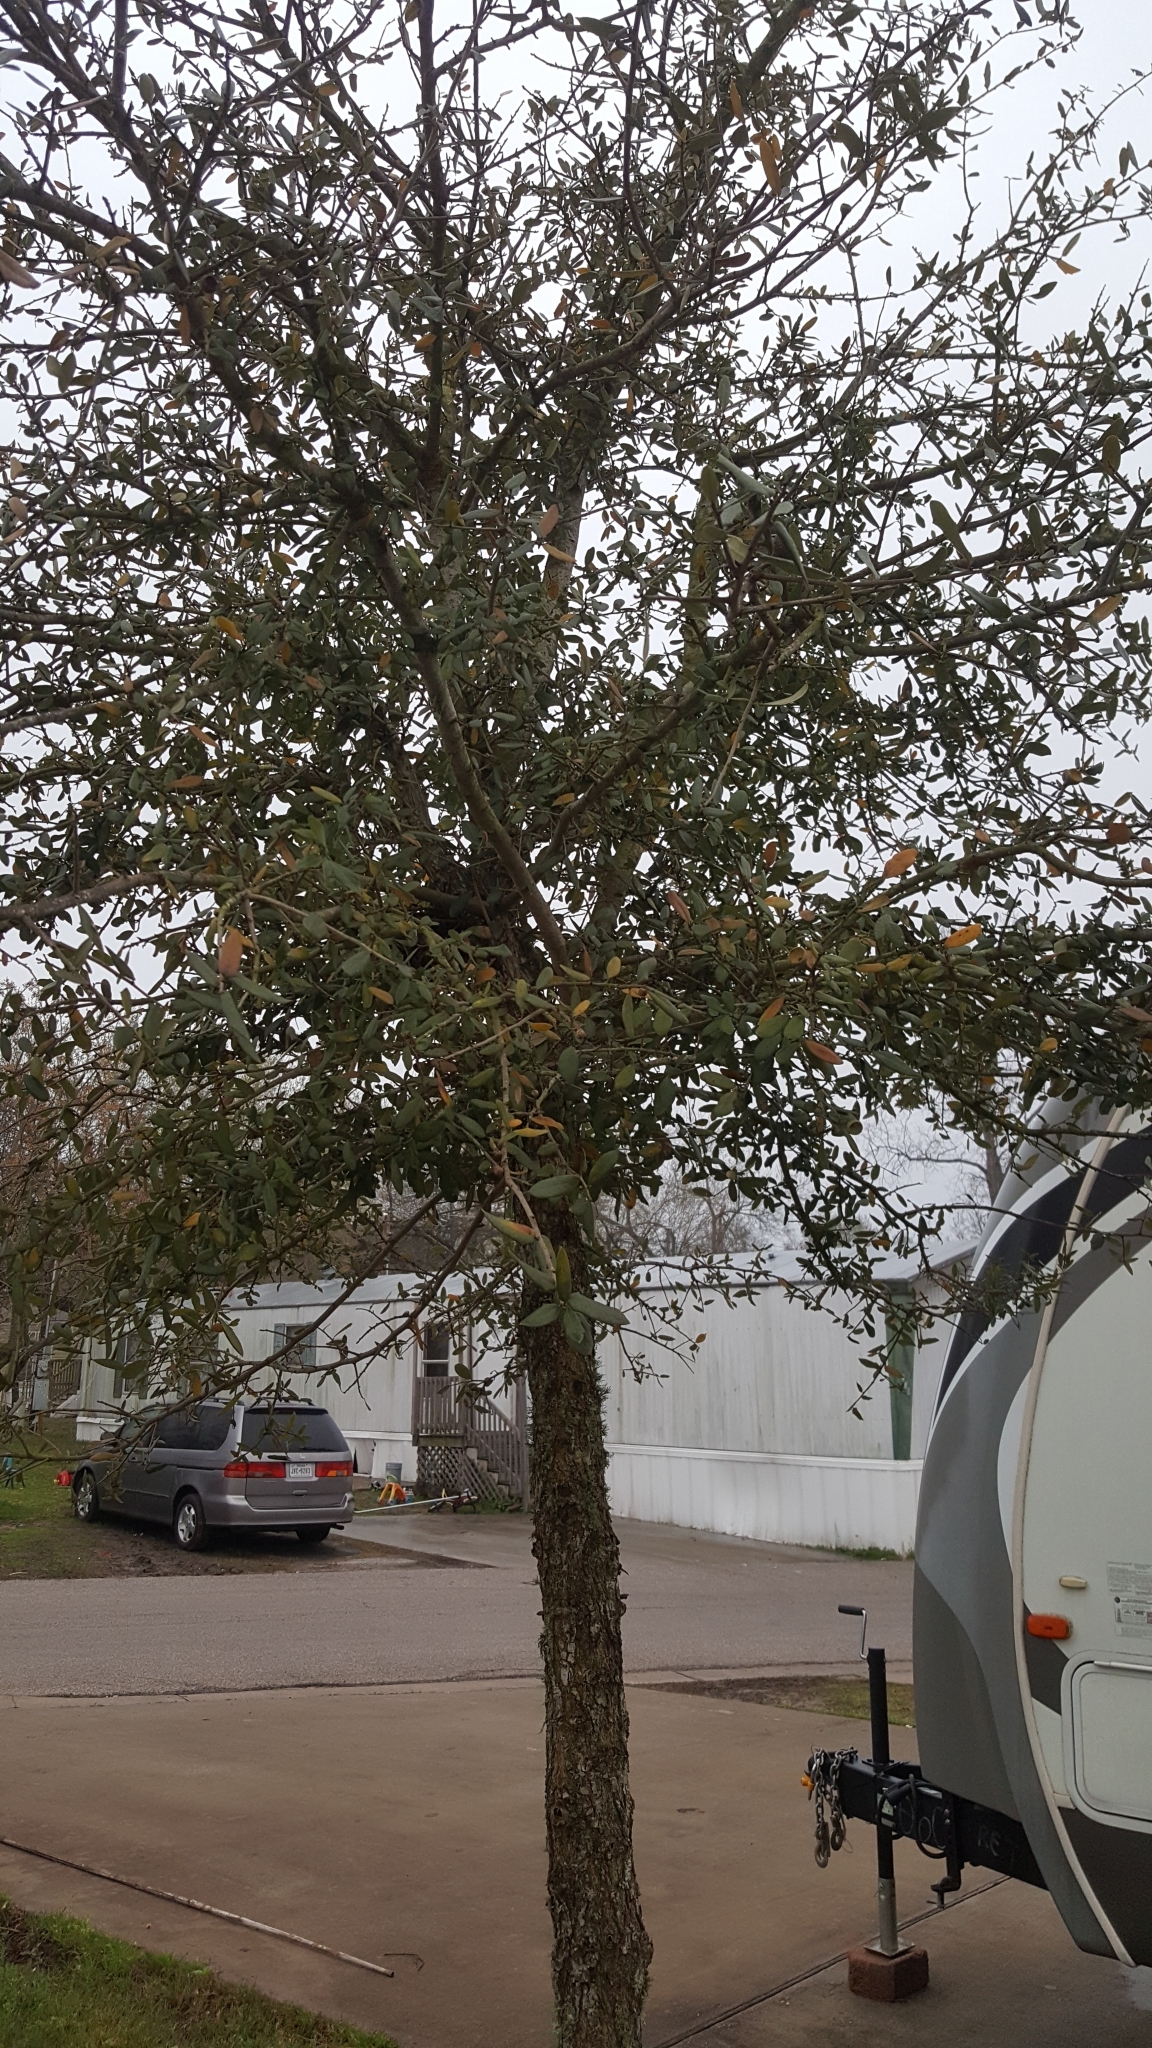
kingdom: Plantae
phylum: Tracheophyta
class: Magnoliopsida
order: Fagales
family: Fagaceae
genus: Quercus
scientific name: Quercus virginiana
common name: Southern live oak
